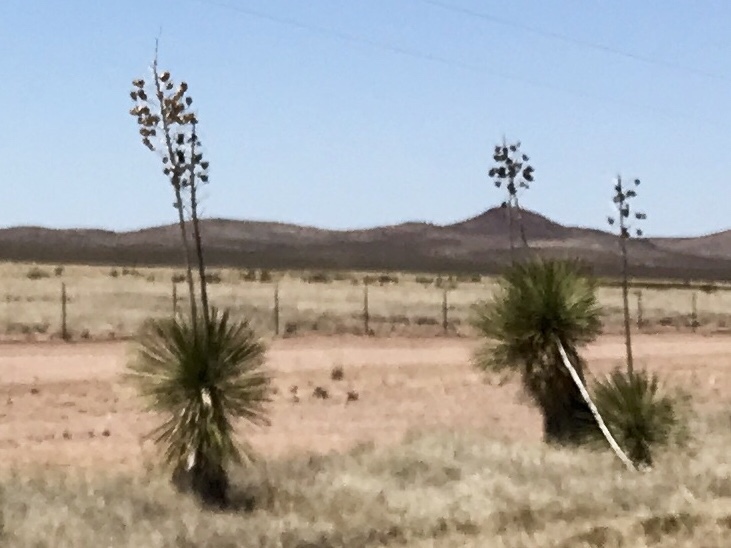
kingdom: Plantae
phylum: Tracheophyta
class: Liliopsida
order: Asparagales
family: Asparagaceae
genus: Yucca
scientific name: Yucca elata
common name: Palmella
